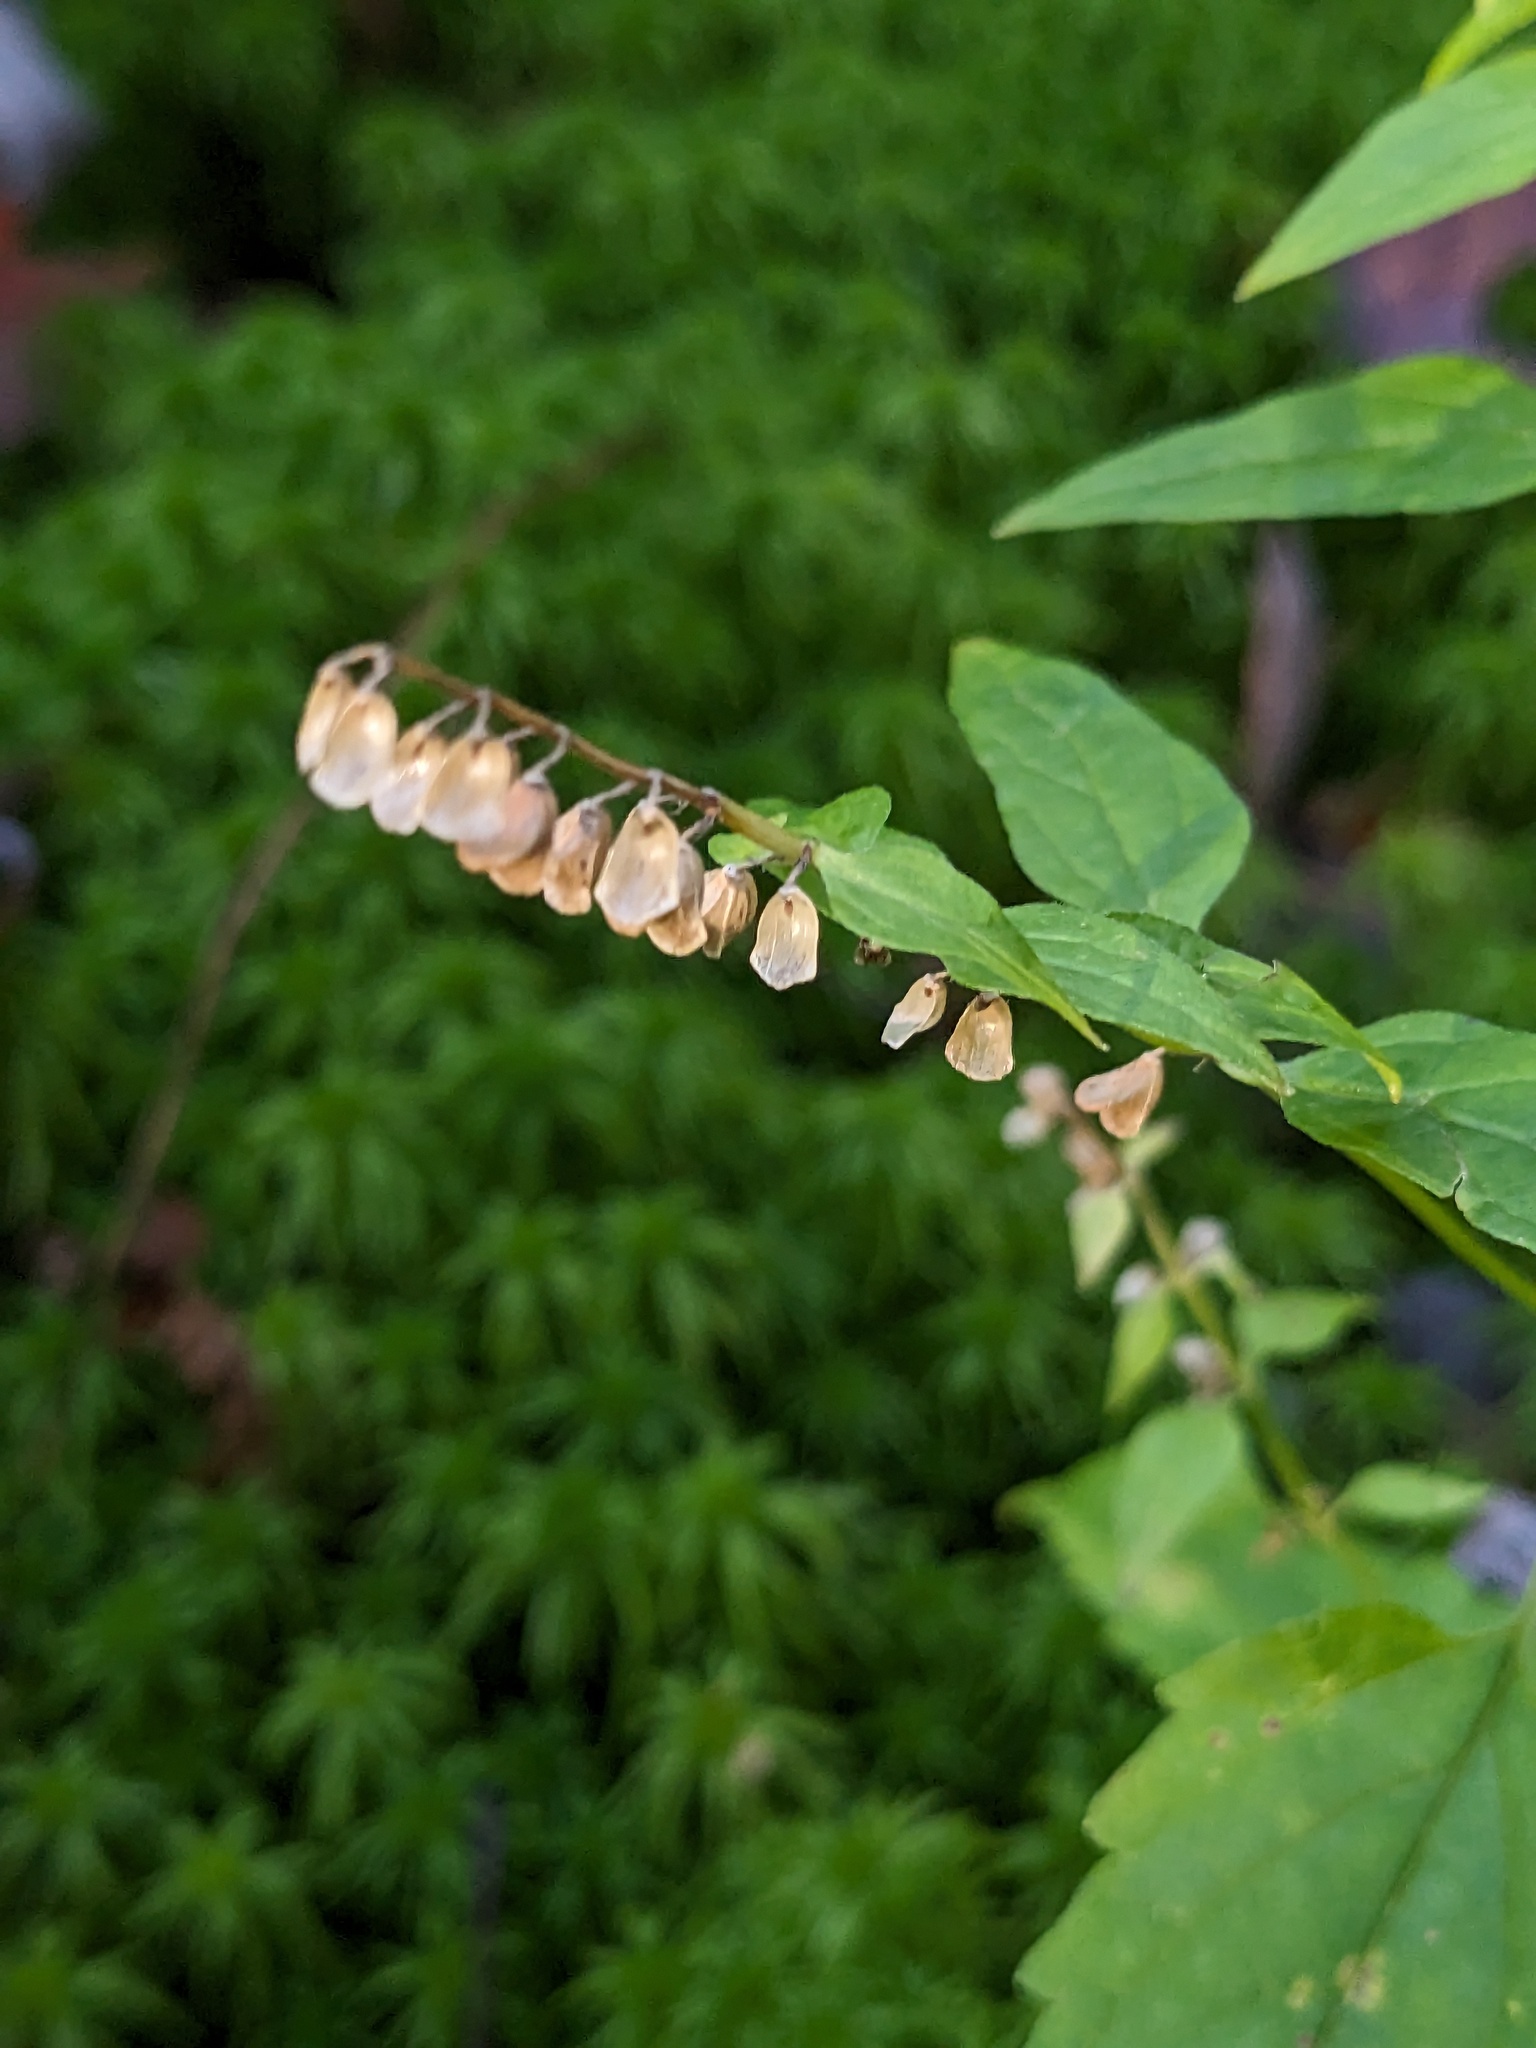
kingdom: Plantae
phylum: Tracheophyta
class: Magnoliopsida
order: Lamiales
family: Lamiaceae
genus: Scutellaria
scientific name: Scutellaria lateriflora
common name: Blue skullcap
